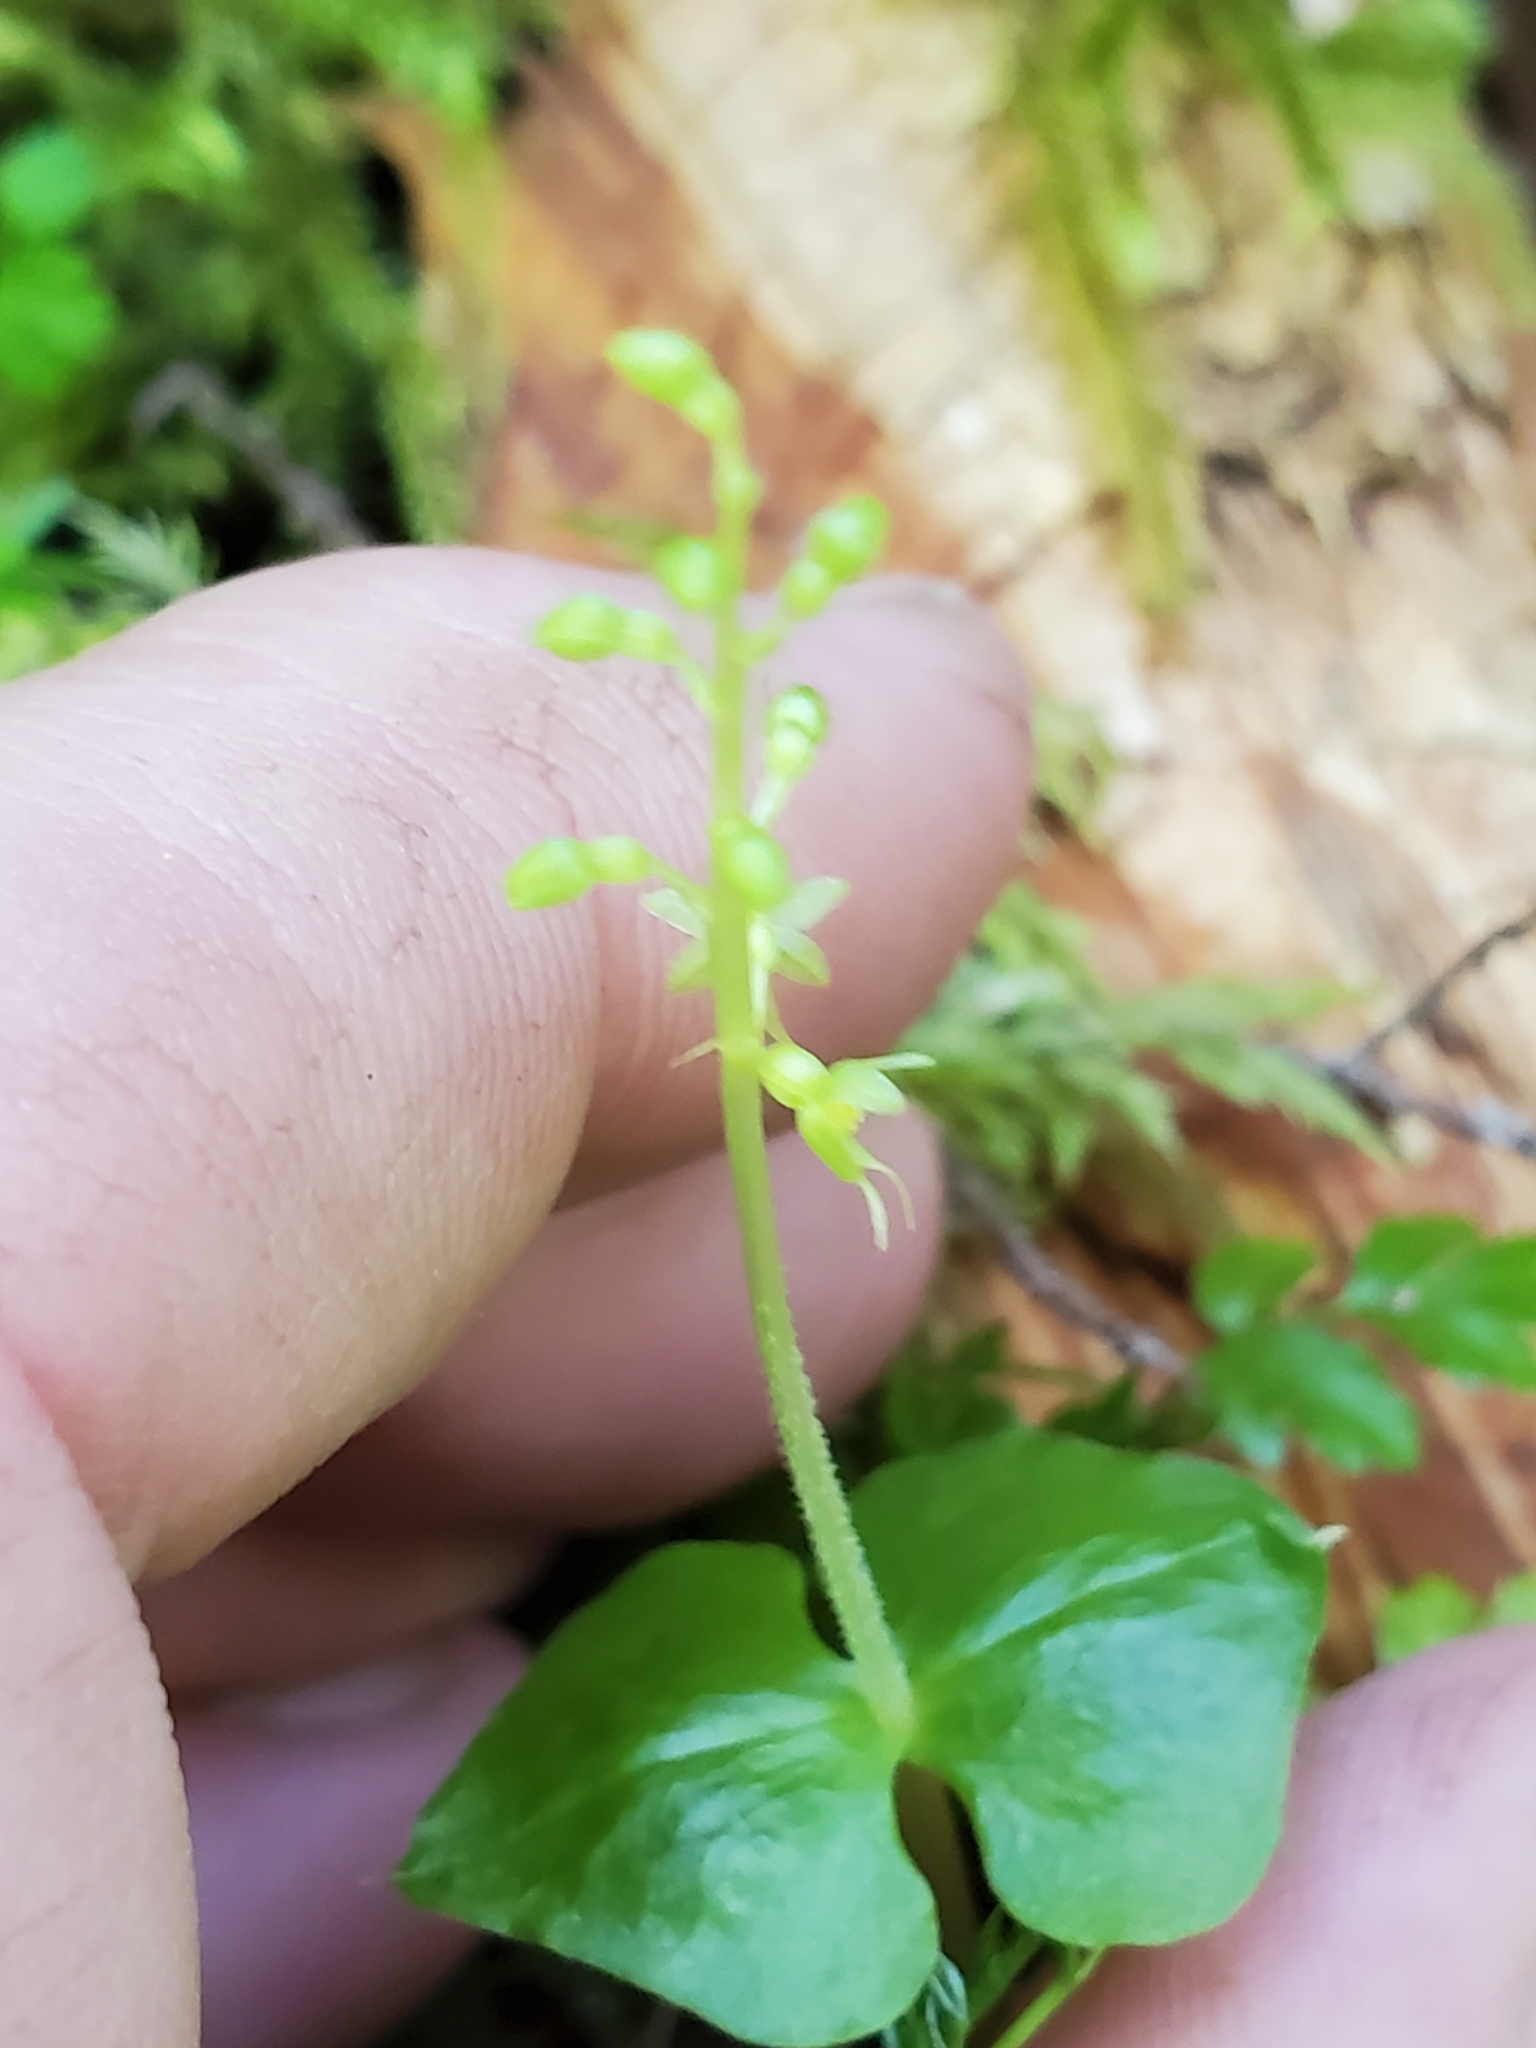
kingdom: Plantae
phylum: Tracheophyta
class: Liliopsida
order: Asparagales
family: Orchidaceae
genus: Neottia
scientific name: Neottia cordata
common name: Lesser twayblade
